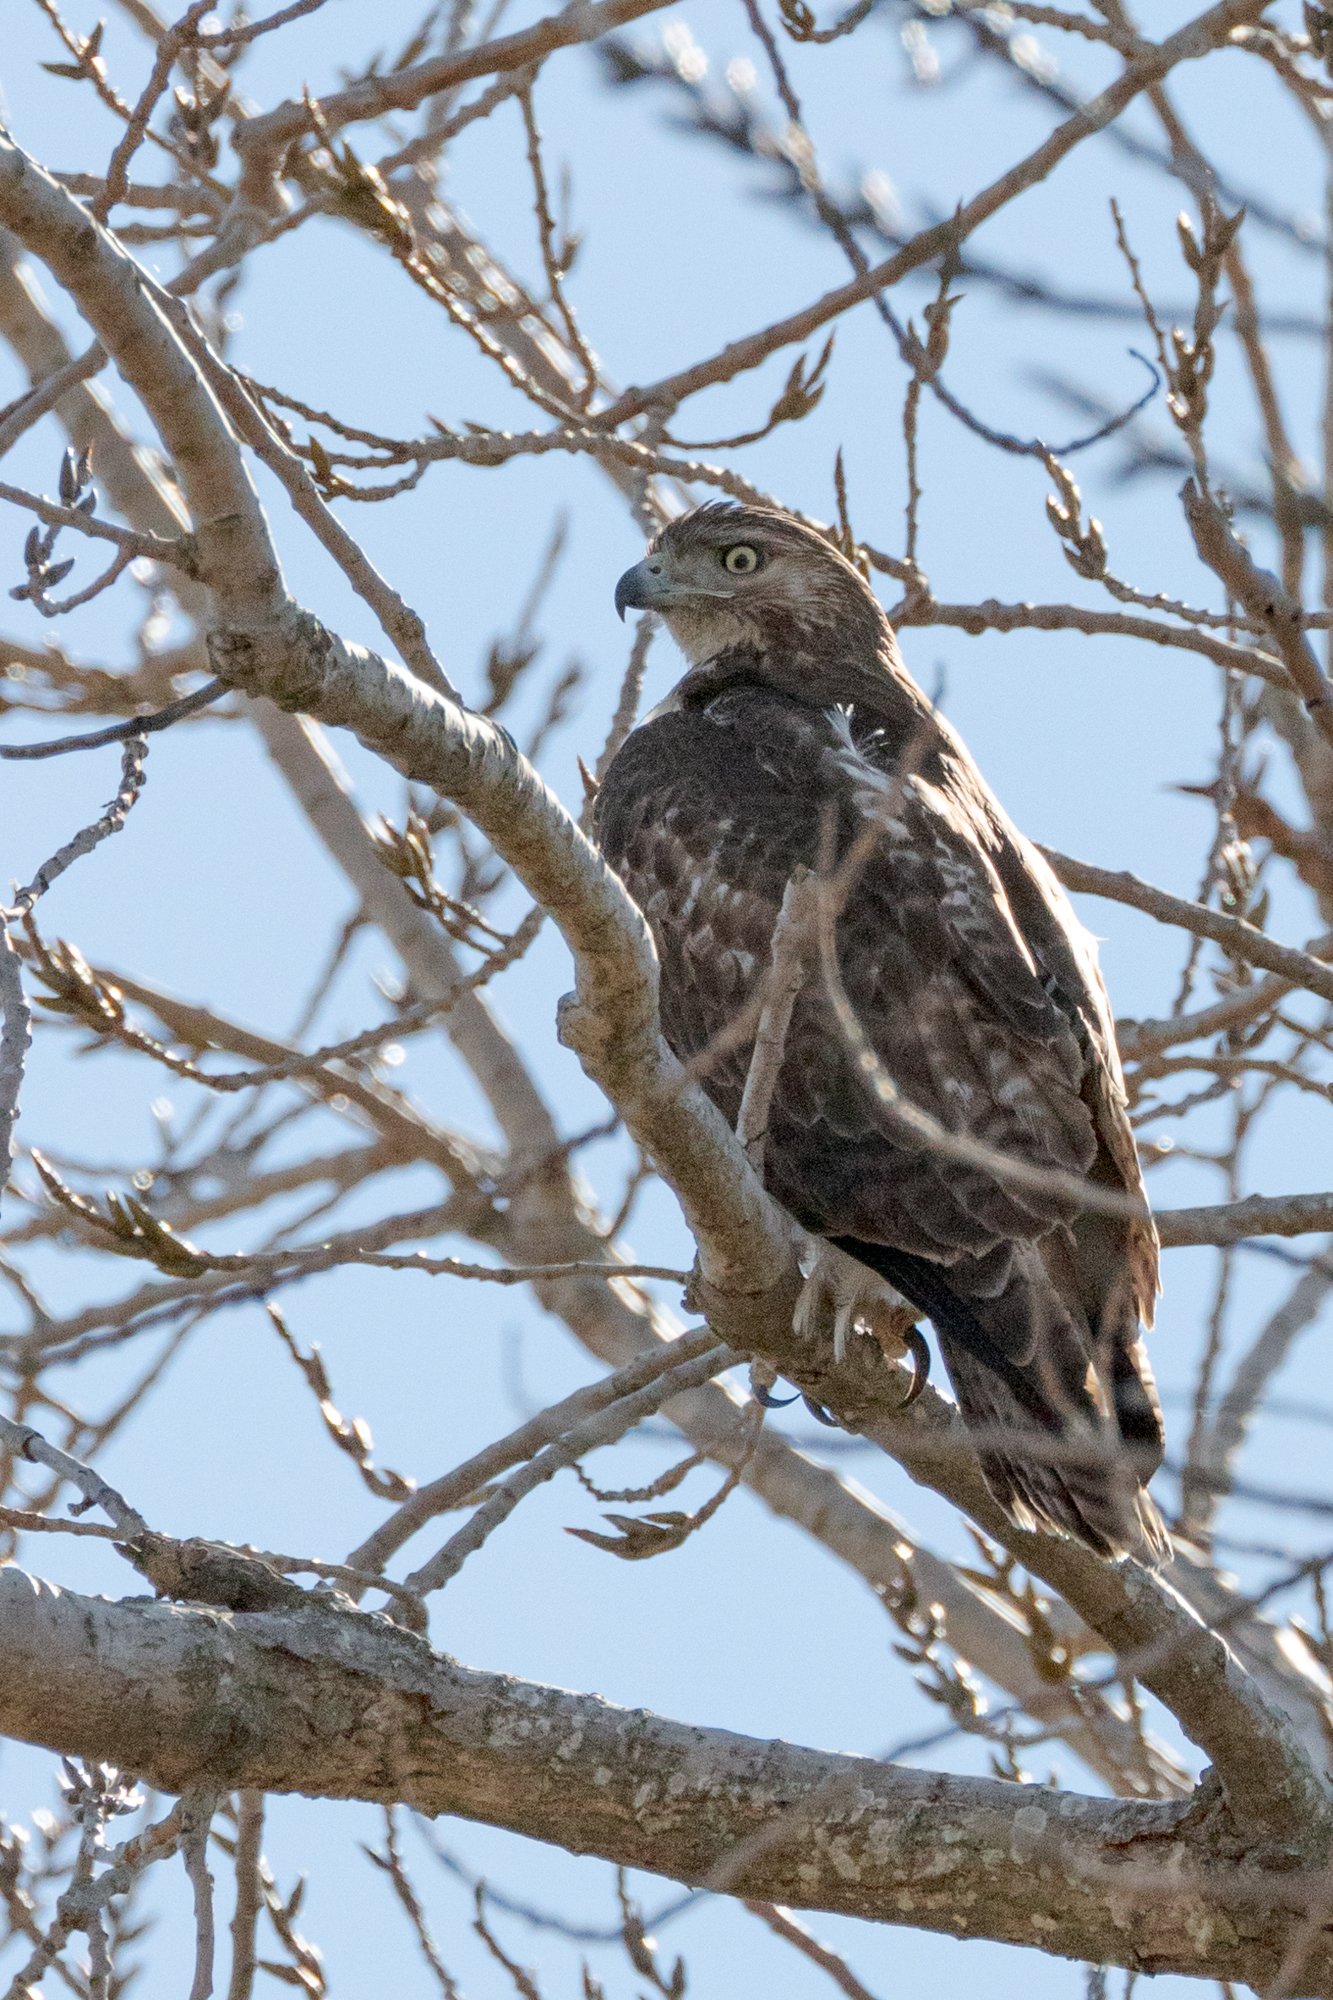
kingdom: Animalia
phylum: Chordata
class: Aves
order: Accipitriformes
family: Accipitridae
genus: Buteo
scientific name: Buteo jamaicensis
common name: Red-tailed hawk
